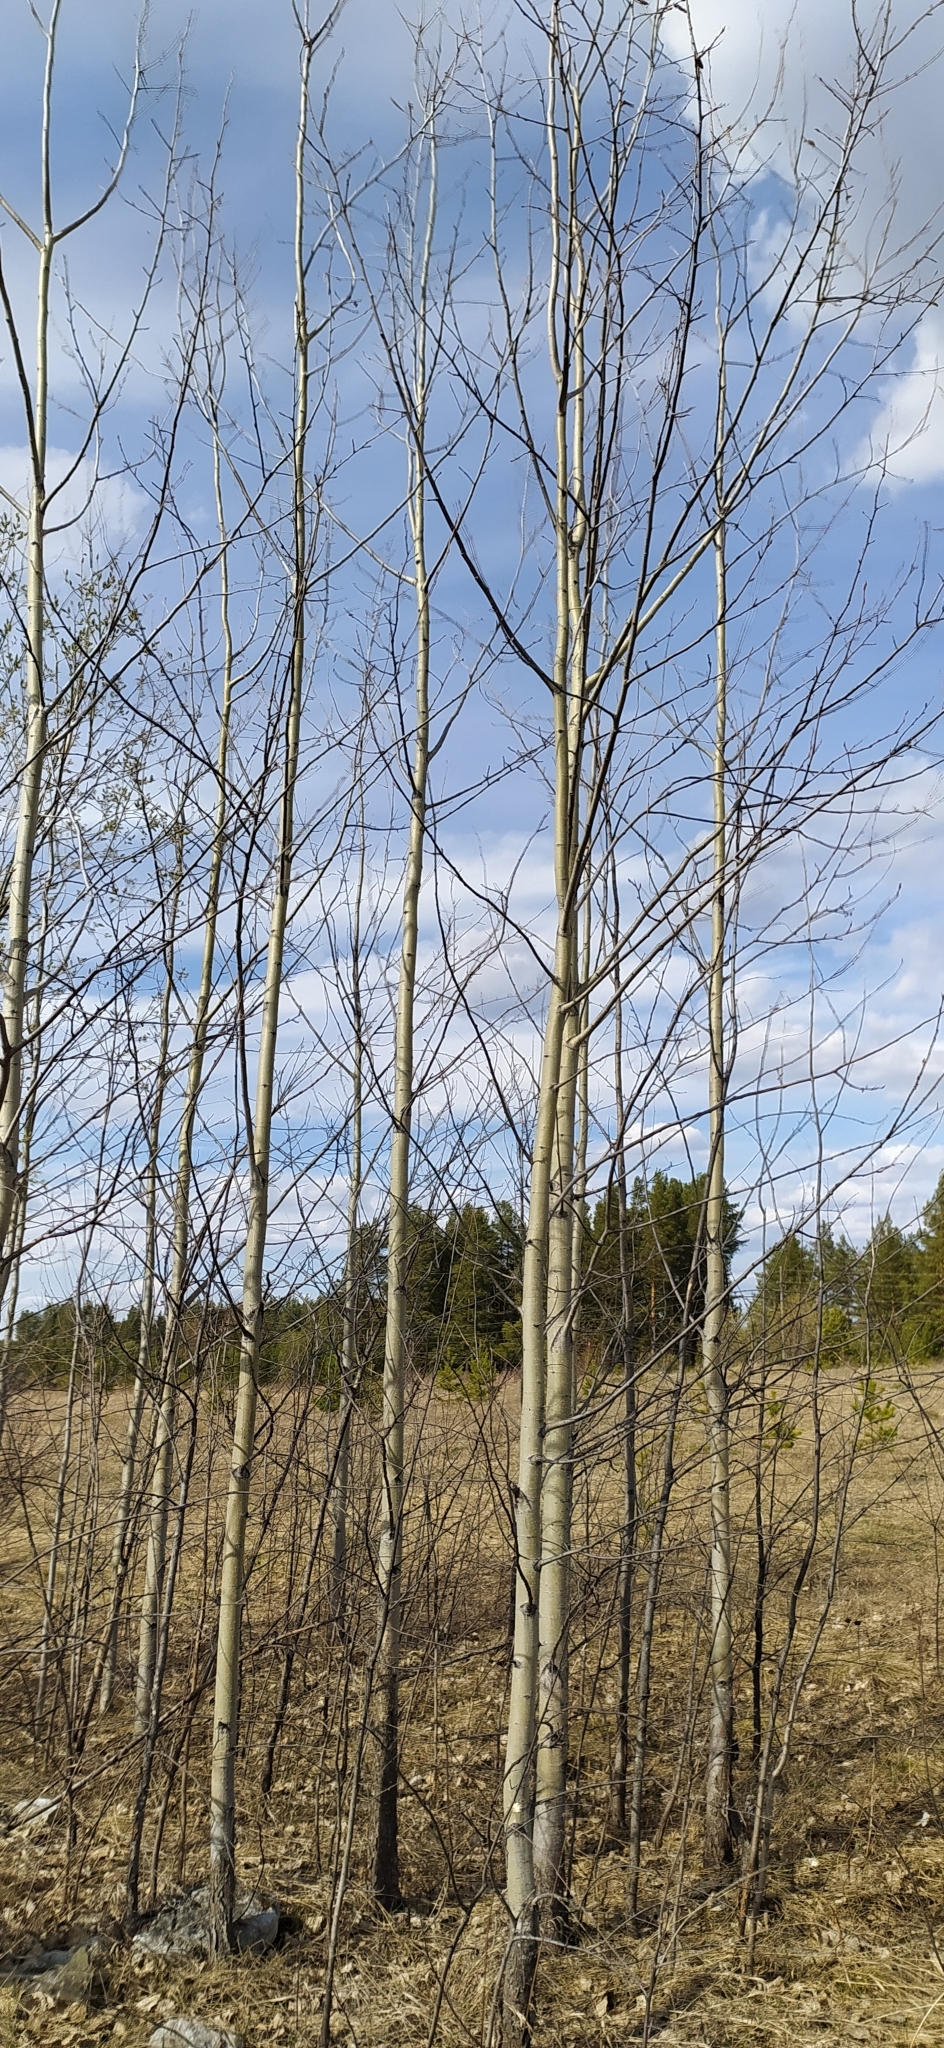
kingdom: Plantae
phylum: Tracheophyta
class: Magnoliopsida
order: Malpighiales
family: Salicaceae
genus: Populus
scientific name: Populus tremula
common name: European aspen
